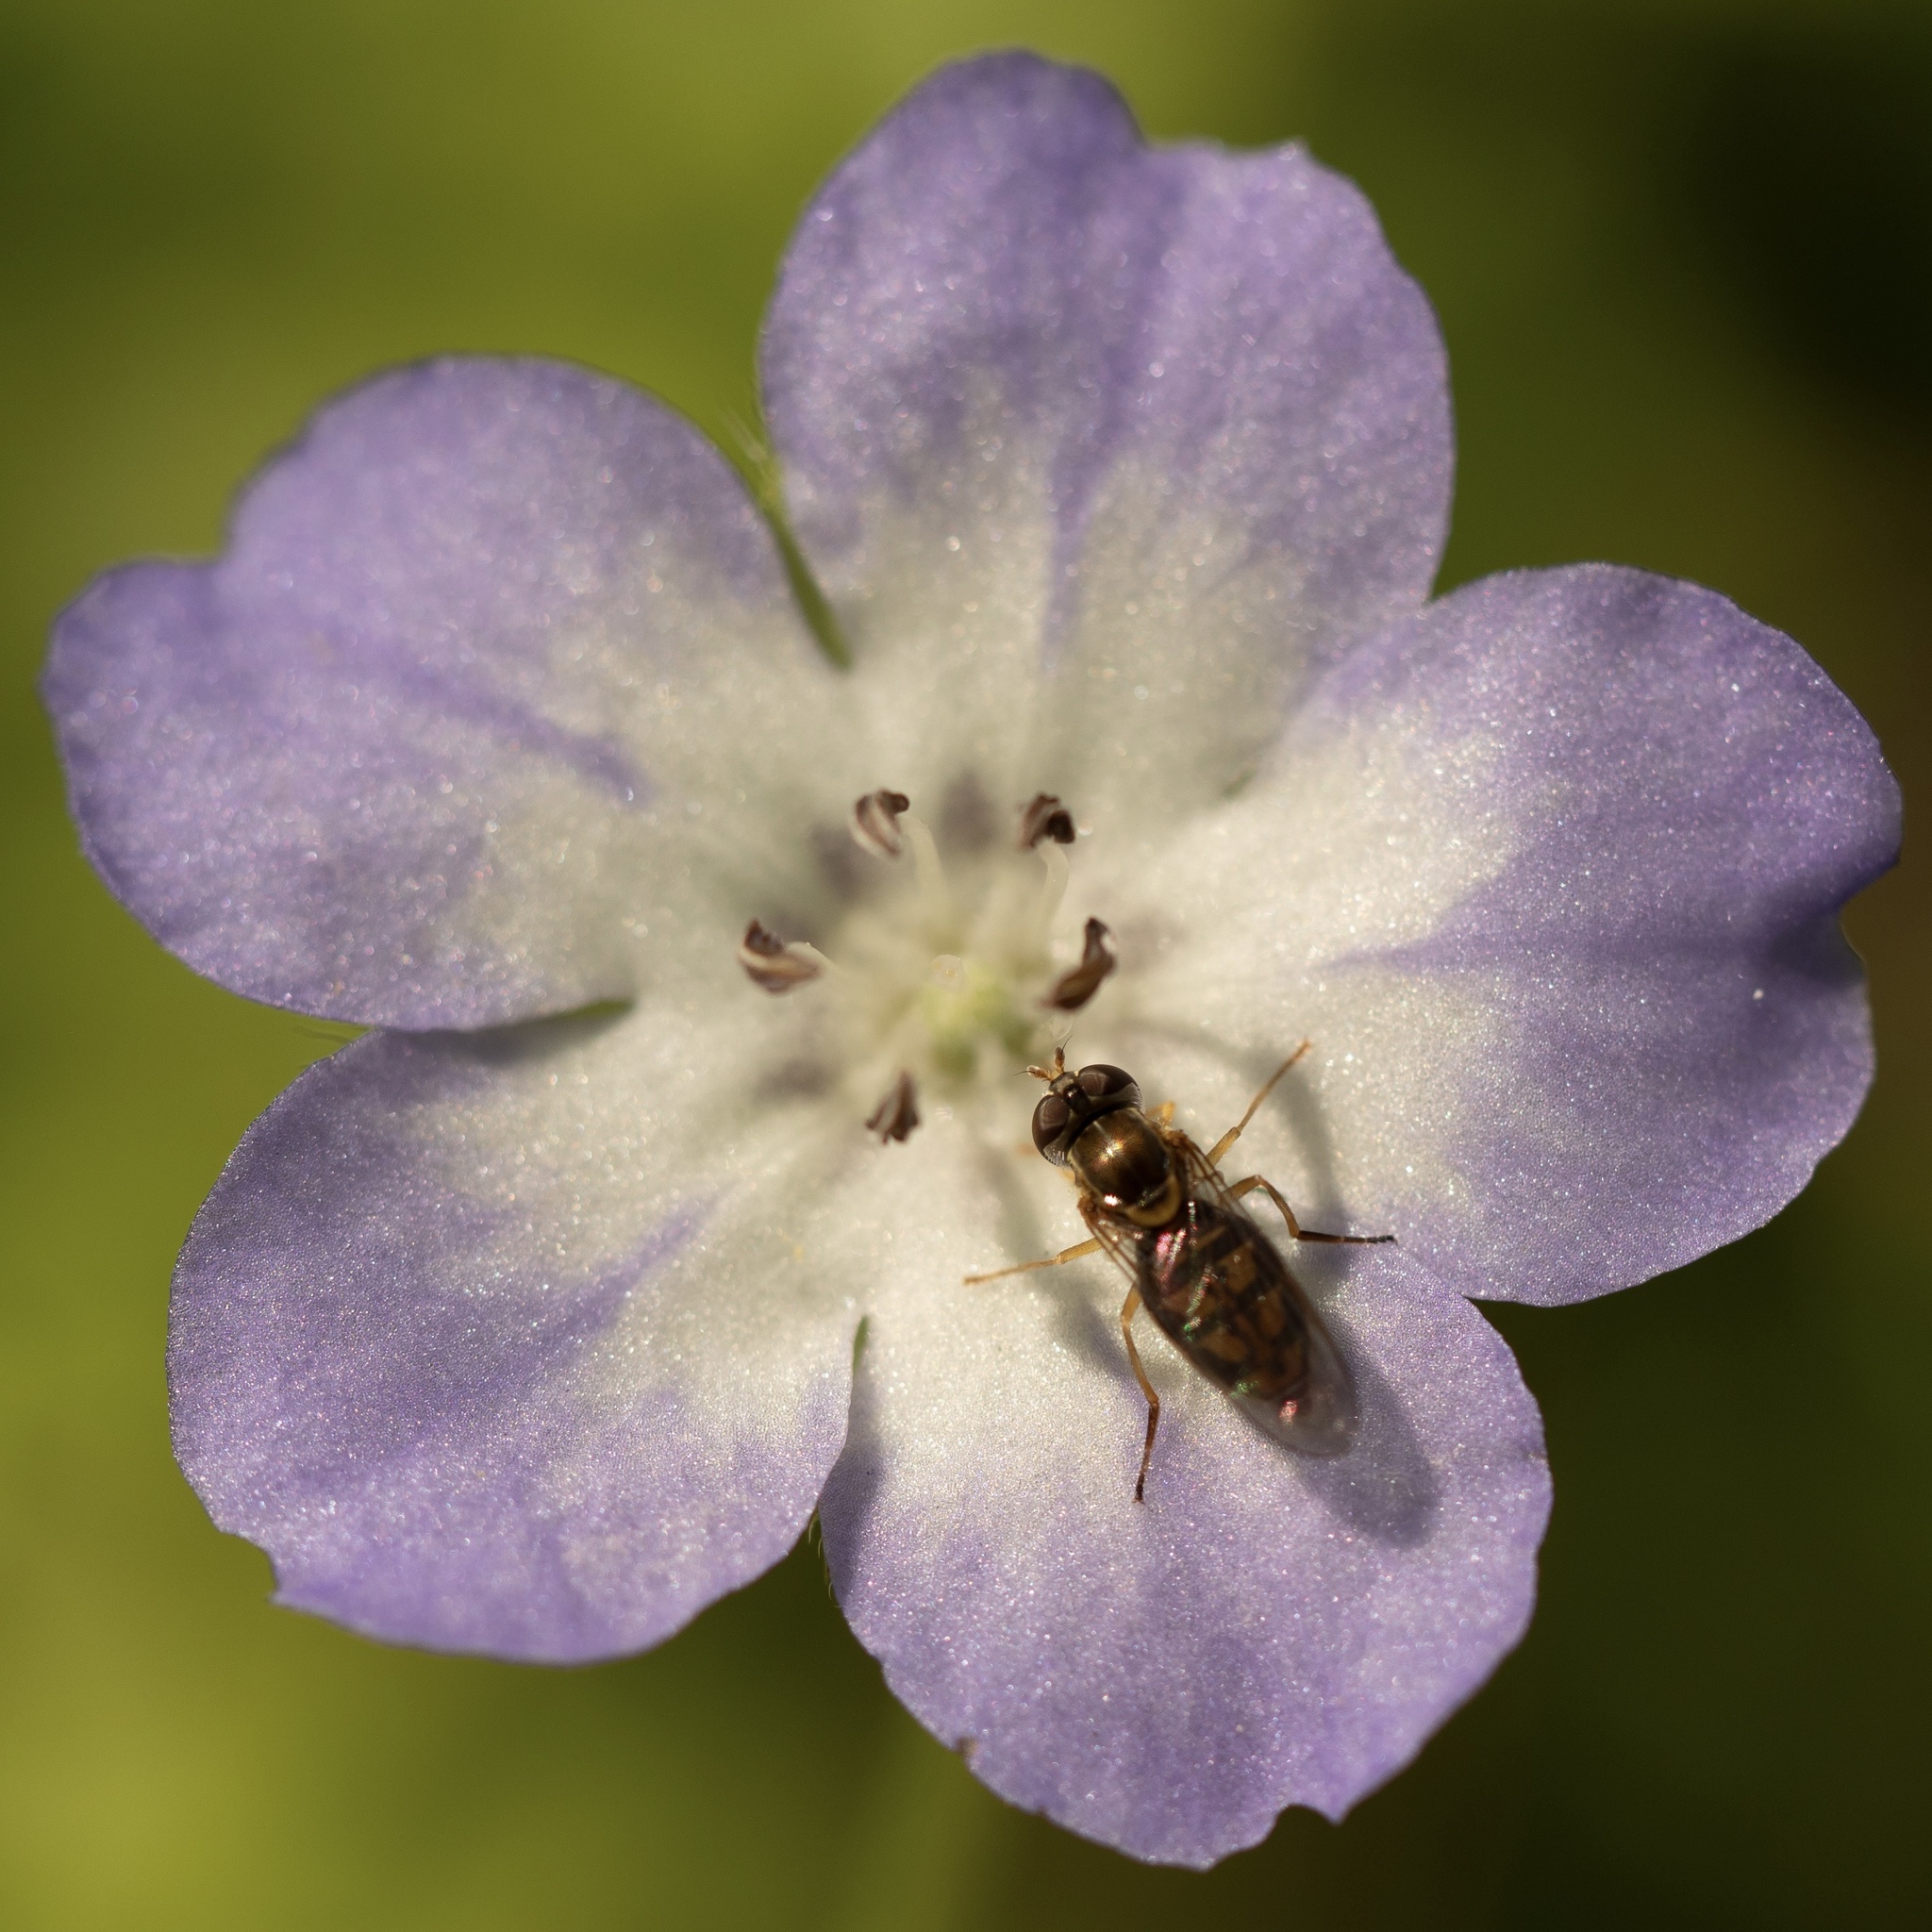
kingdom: Animalia
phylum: Arthropoda
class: Insecta
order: Diptera
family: Syrphidae
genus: Toxomerus
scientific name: Toxomerus marginatus
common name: Syrphid fly
